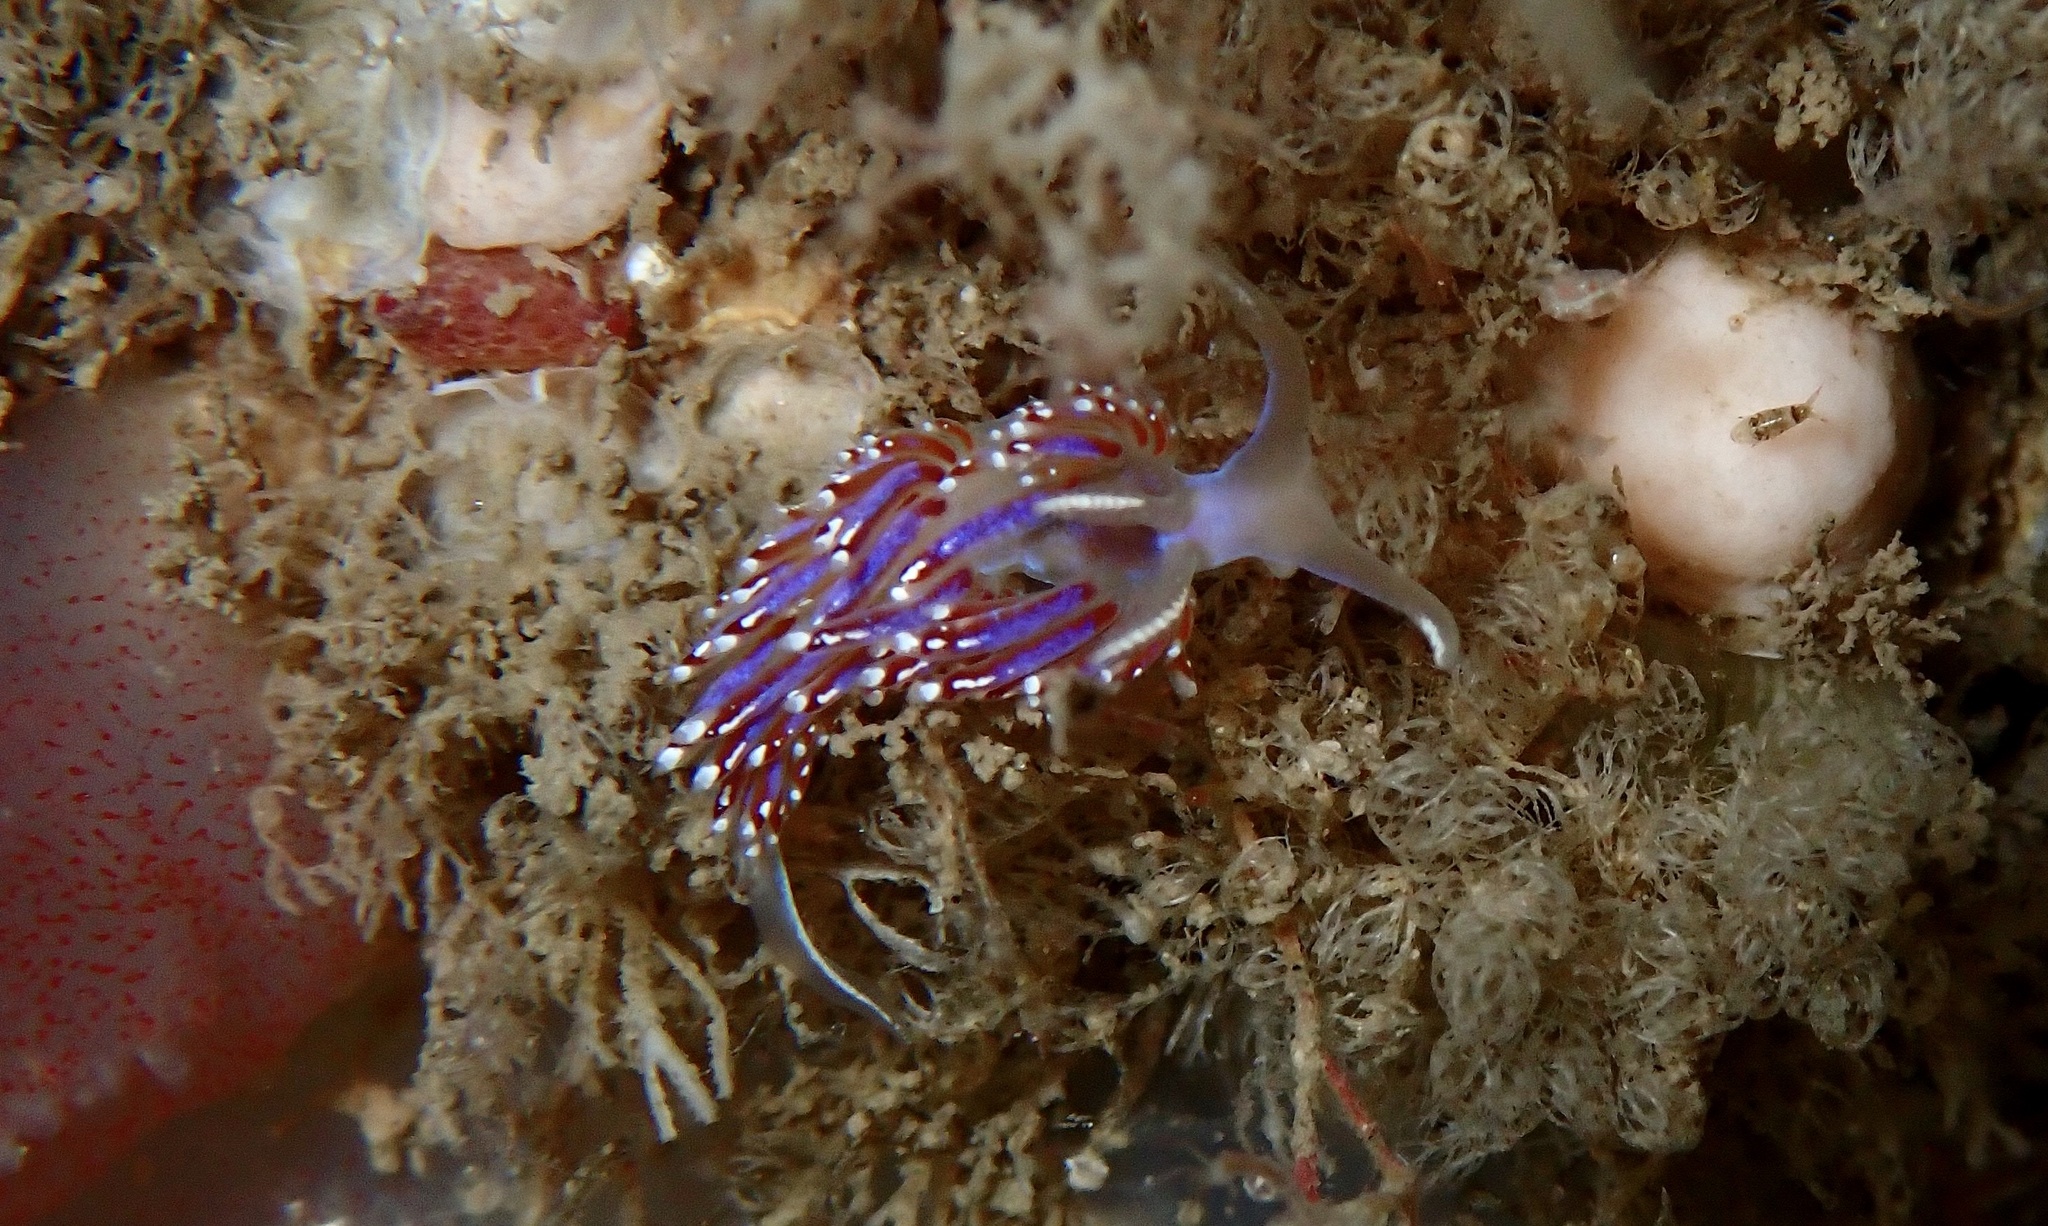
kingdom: Animalia
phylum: Mollusca
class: Gastropoda
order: Nudibranchia
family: Facelinidae
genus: Facelina
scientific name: Facelina auriculata
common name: Slender facelina
